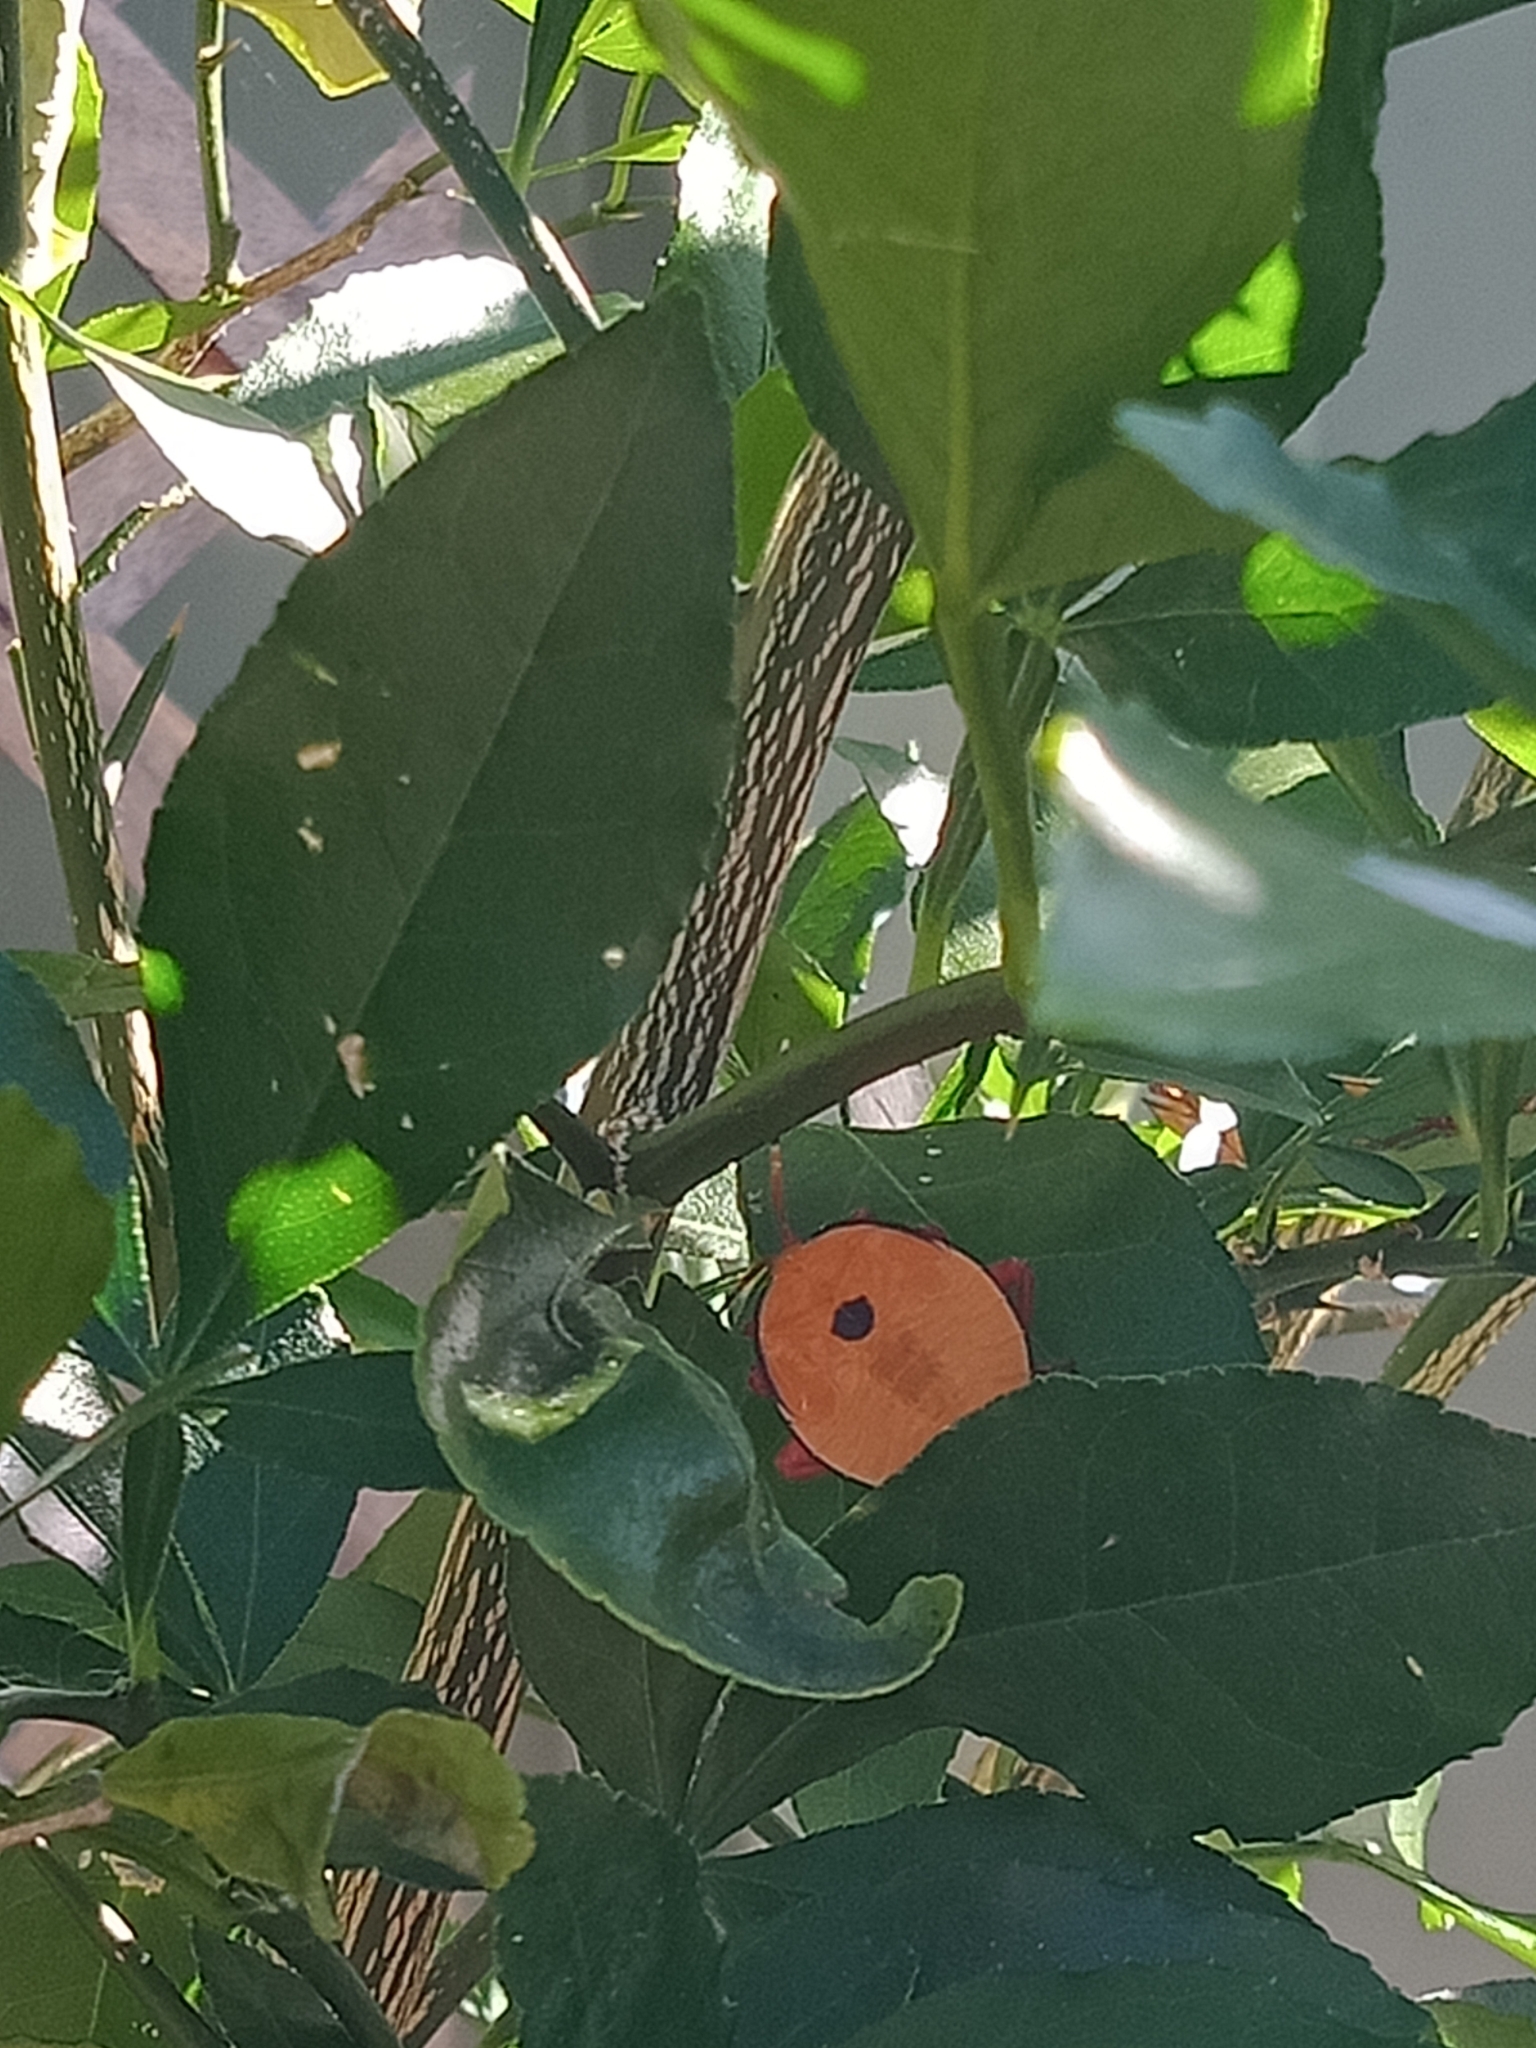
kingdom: Animalia
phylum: Arthropoda
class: Insecta
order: Hemiptera
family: Tessaratomidae
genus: Musgraveia
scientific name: Musgraveia sulciventris
